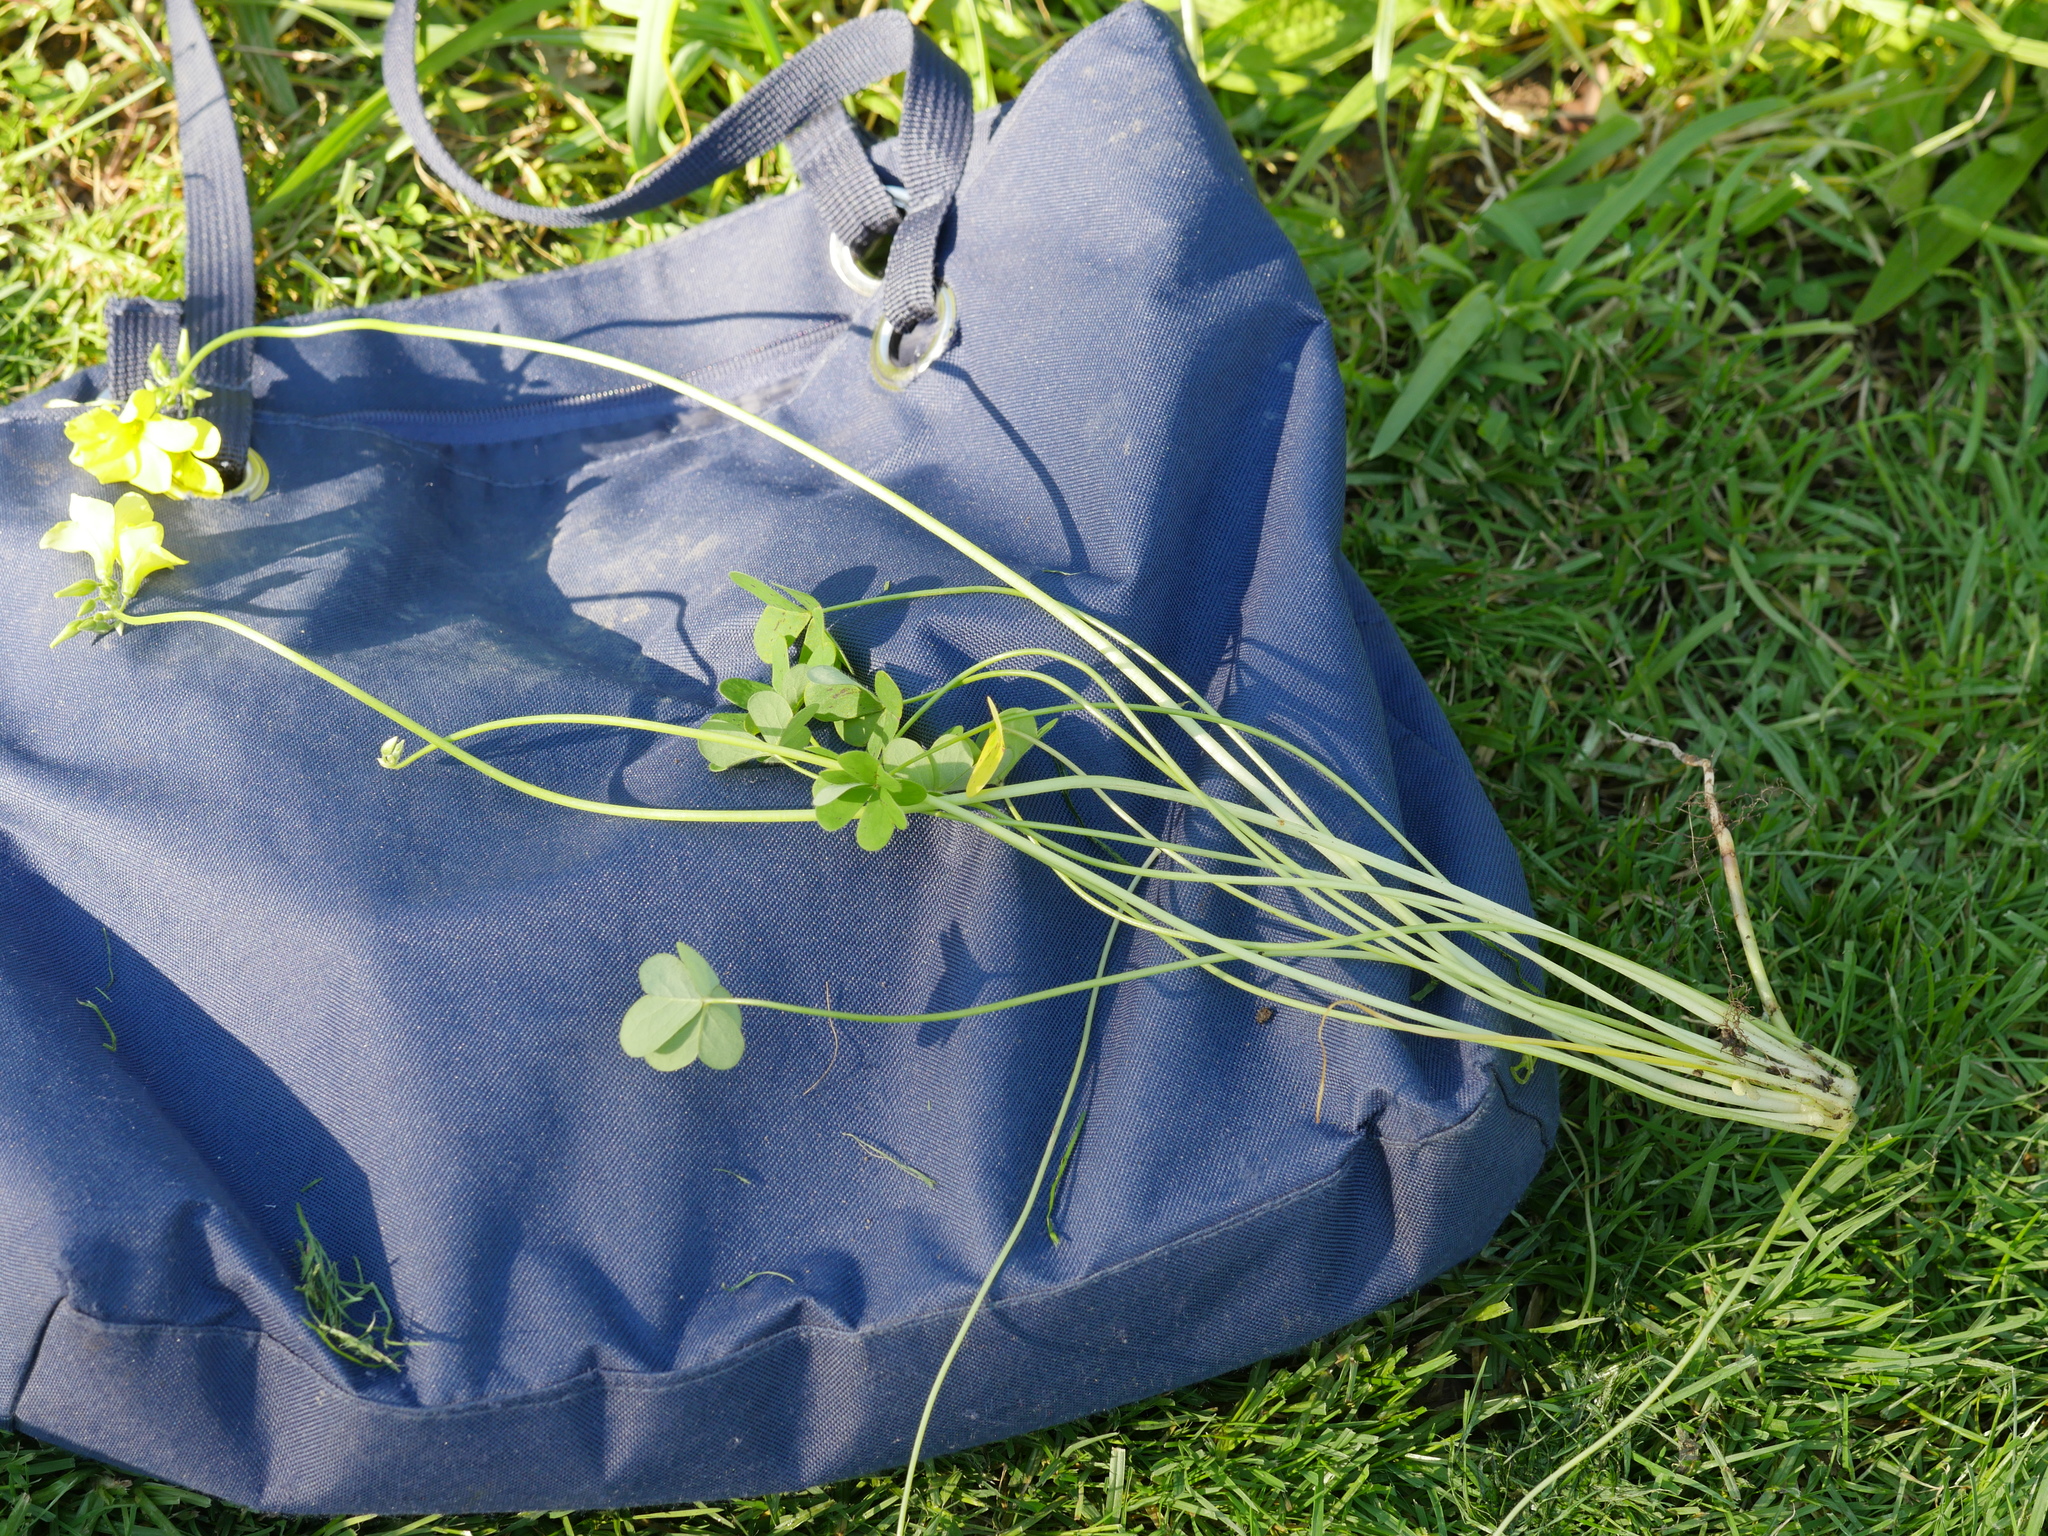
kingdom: Plantae
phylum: Tracheophyta
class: Magnoliopsida
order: Oxalidales
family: Oxalidaceae
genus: Oxalis
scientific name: Oxalis pes-caprae
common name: Bermuda-buttercup
